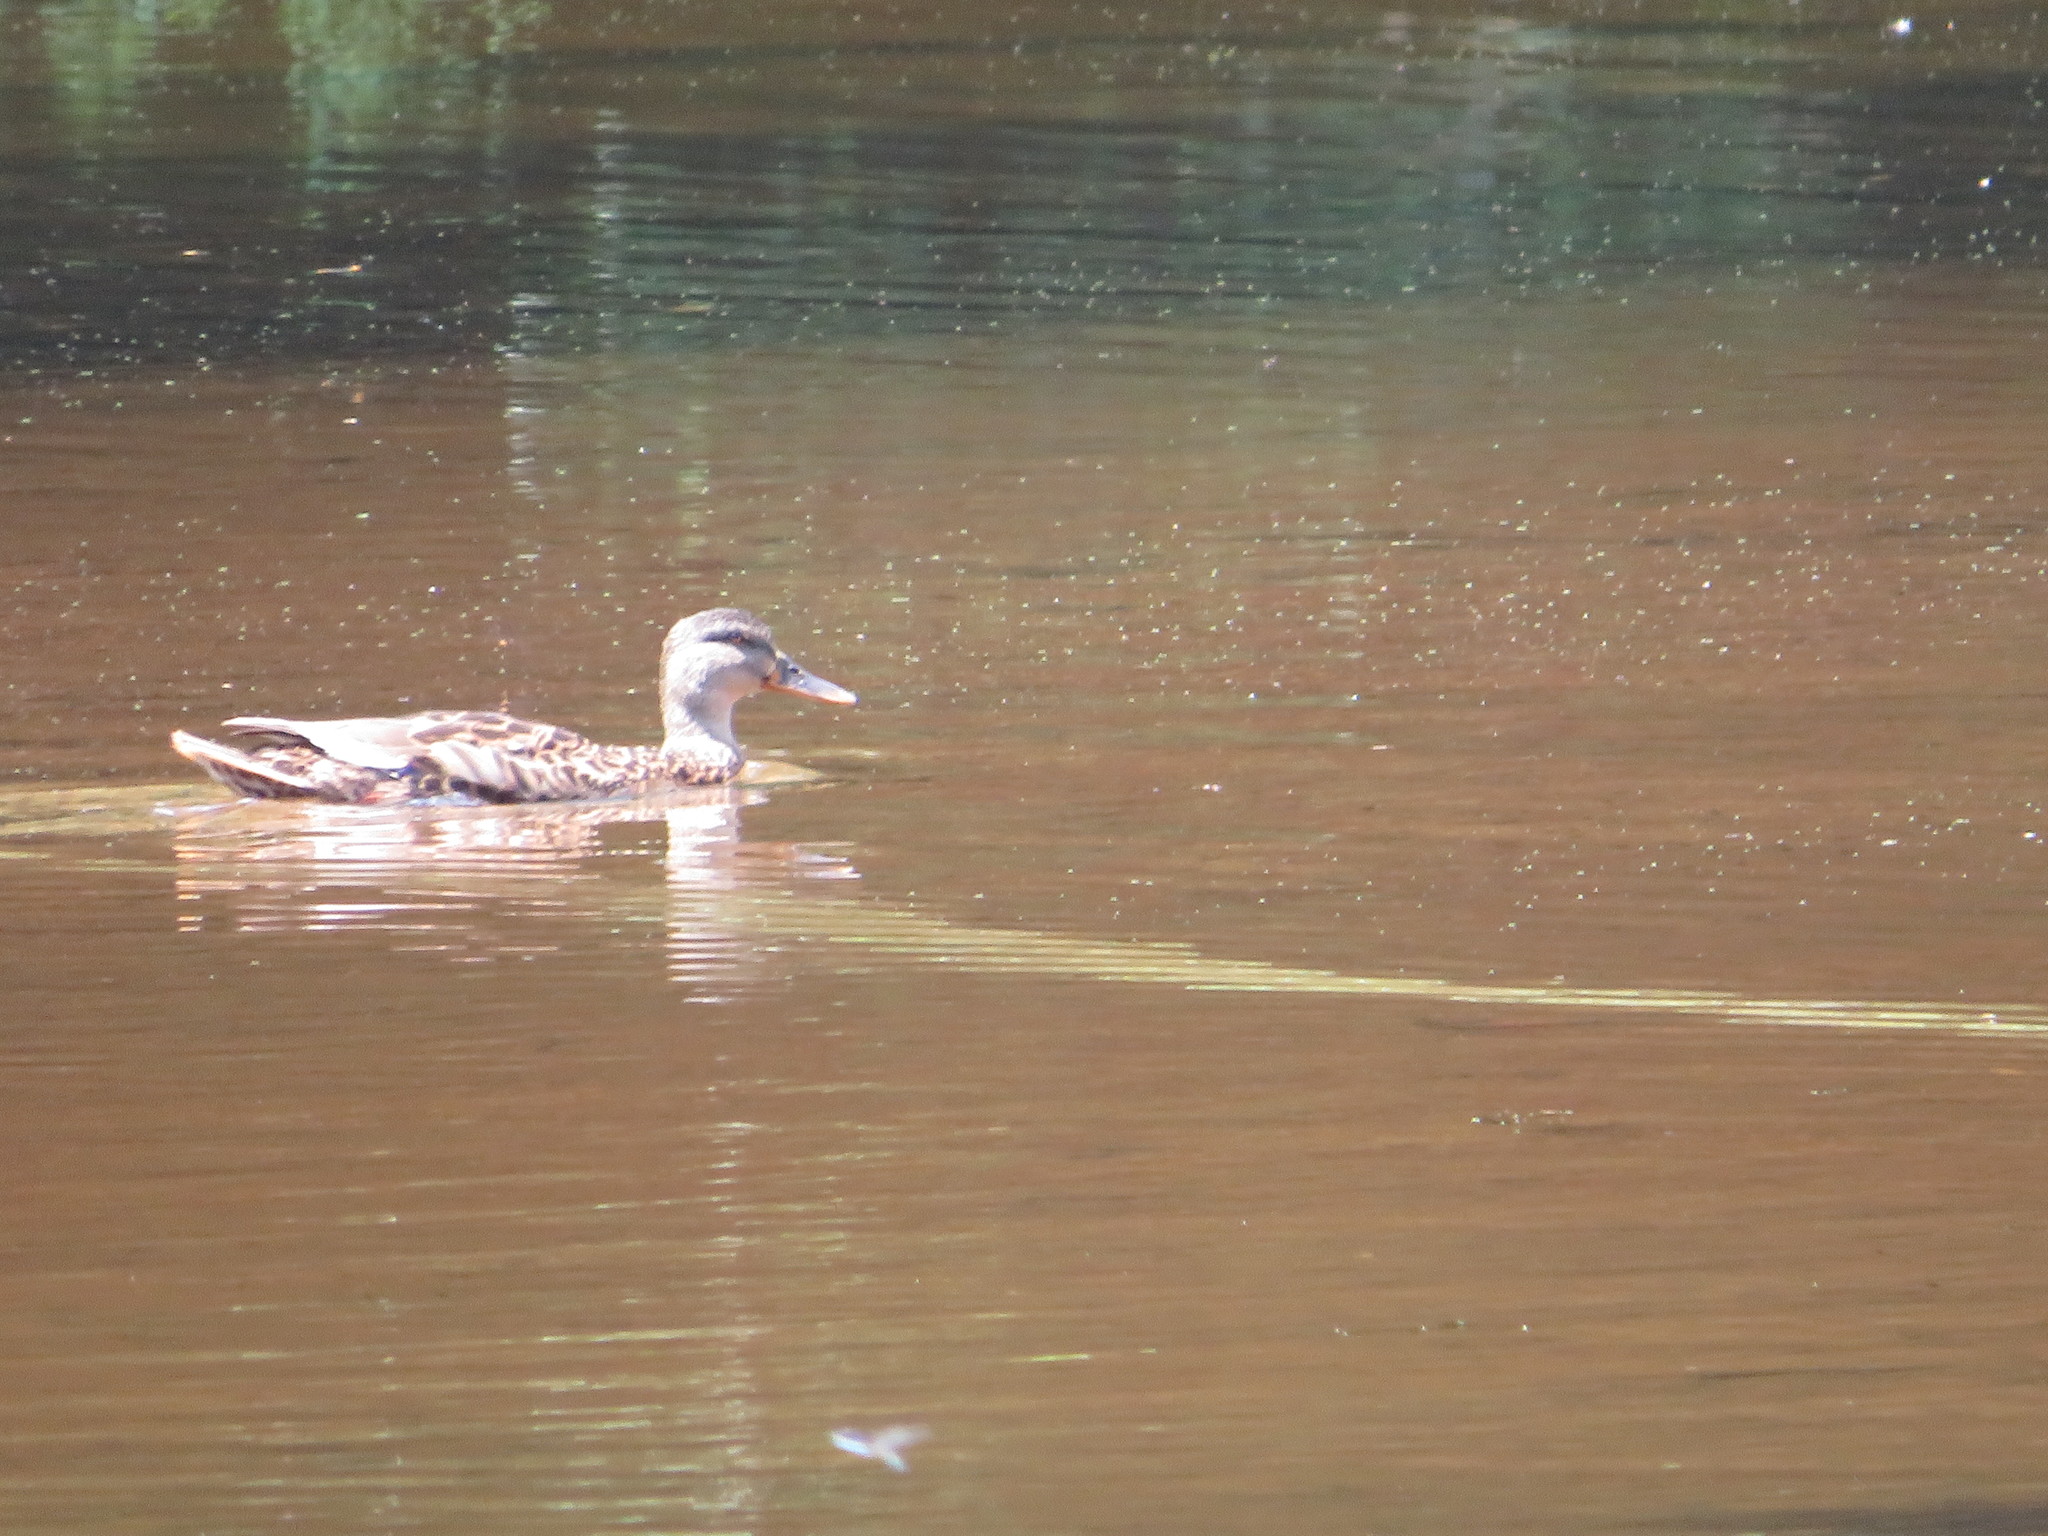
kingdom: Animalia
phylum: Chordata
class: Aves
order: Anseriformes
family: Anatidae
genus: Anas
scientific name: Anas platyrhynchos
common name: Mallard
